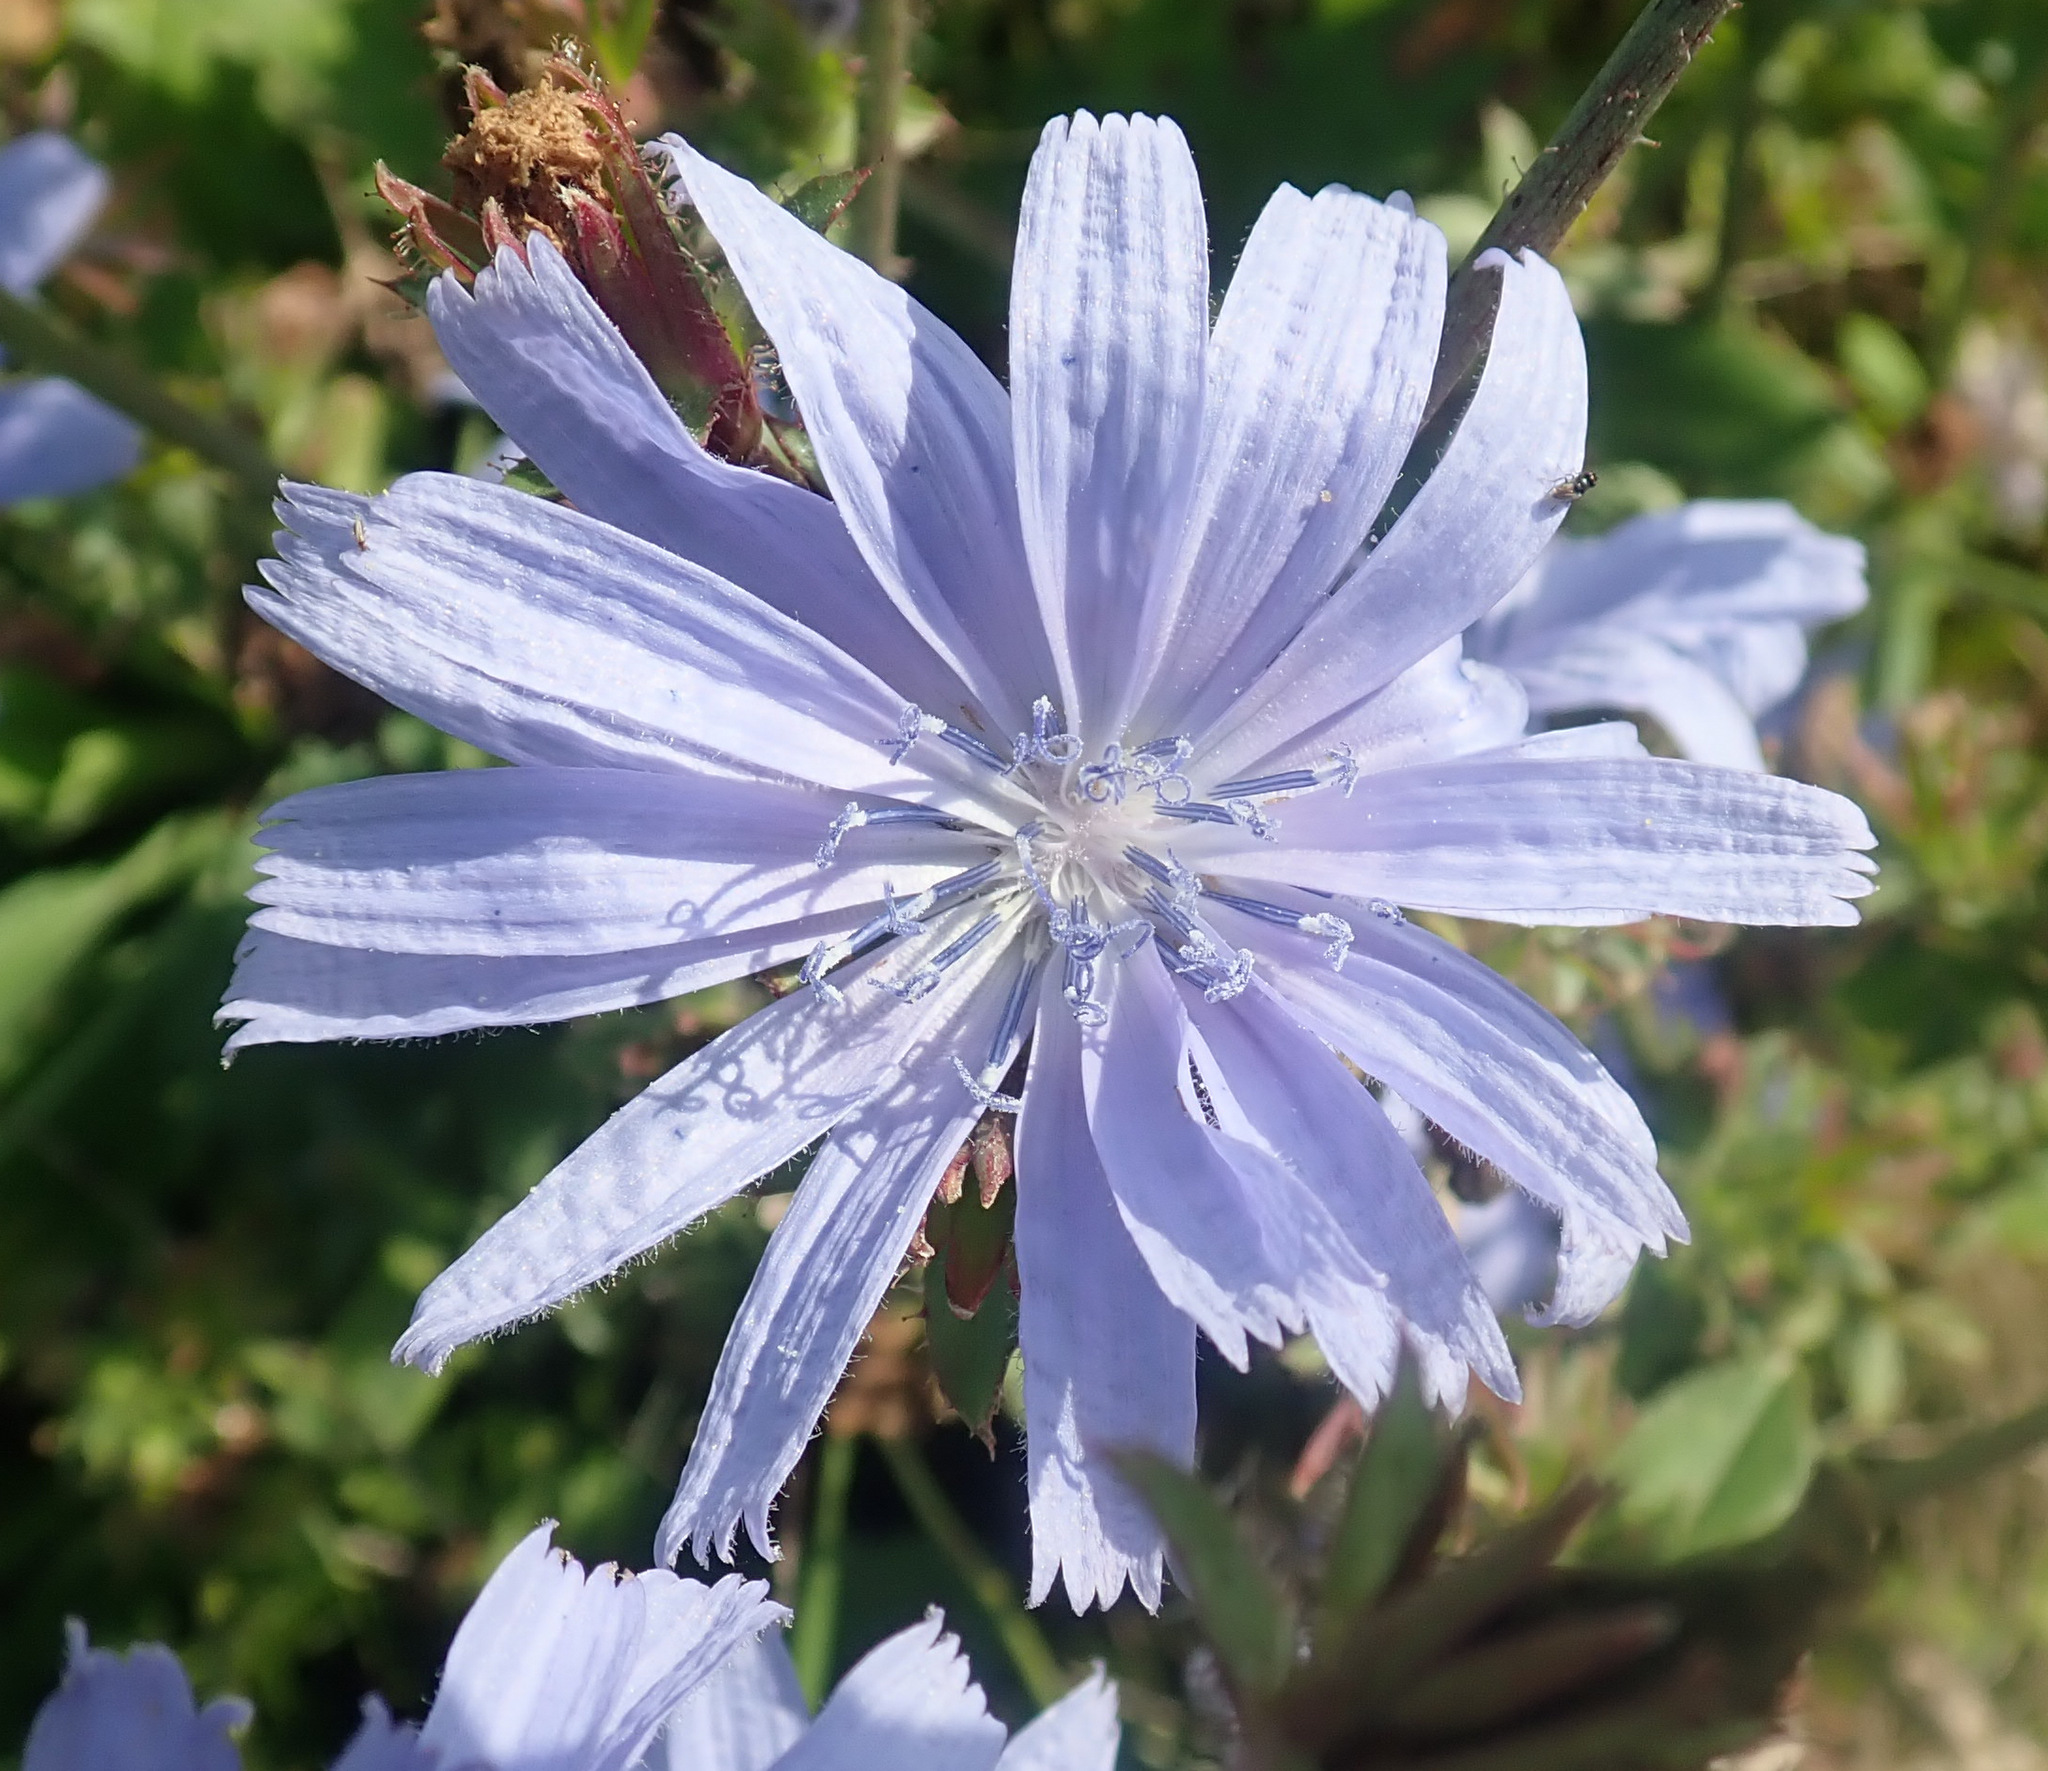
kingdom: Plantae
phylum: Tracheophyta
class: Magnoliopsida
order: Asterales
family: Asteraceae
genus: Cichorium
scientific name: Cichorium intybus
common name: Chicory
